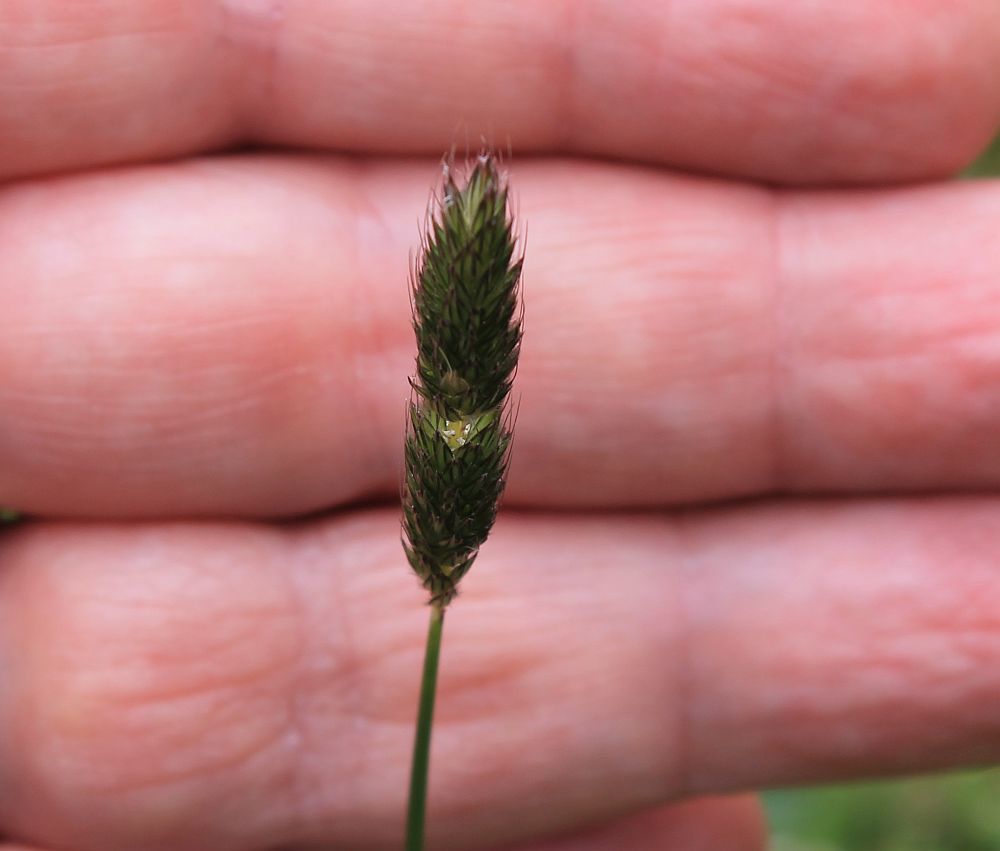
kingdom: Plantae
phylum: Tracheophyta
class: Liliopsida
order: Poales
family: Poaceae
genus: Alopecurus
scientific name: Alopecurus pratensis
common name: Meadow foxtail
